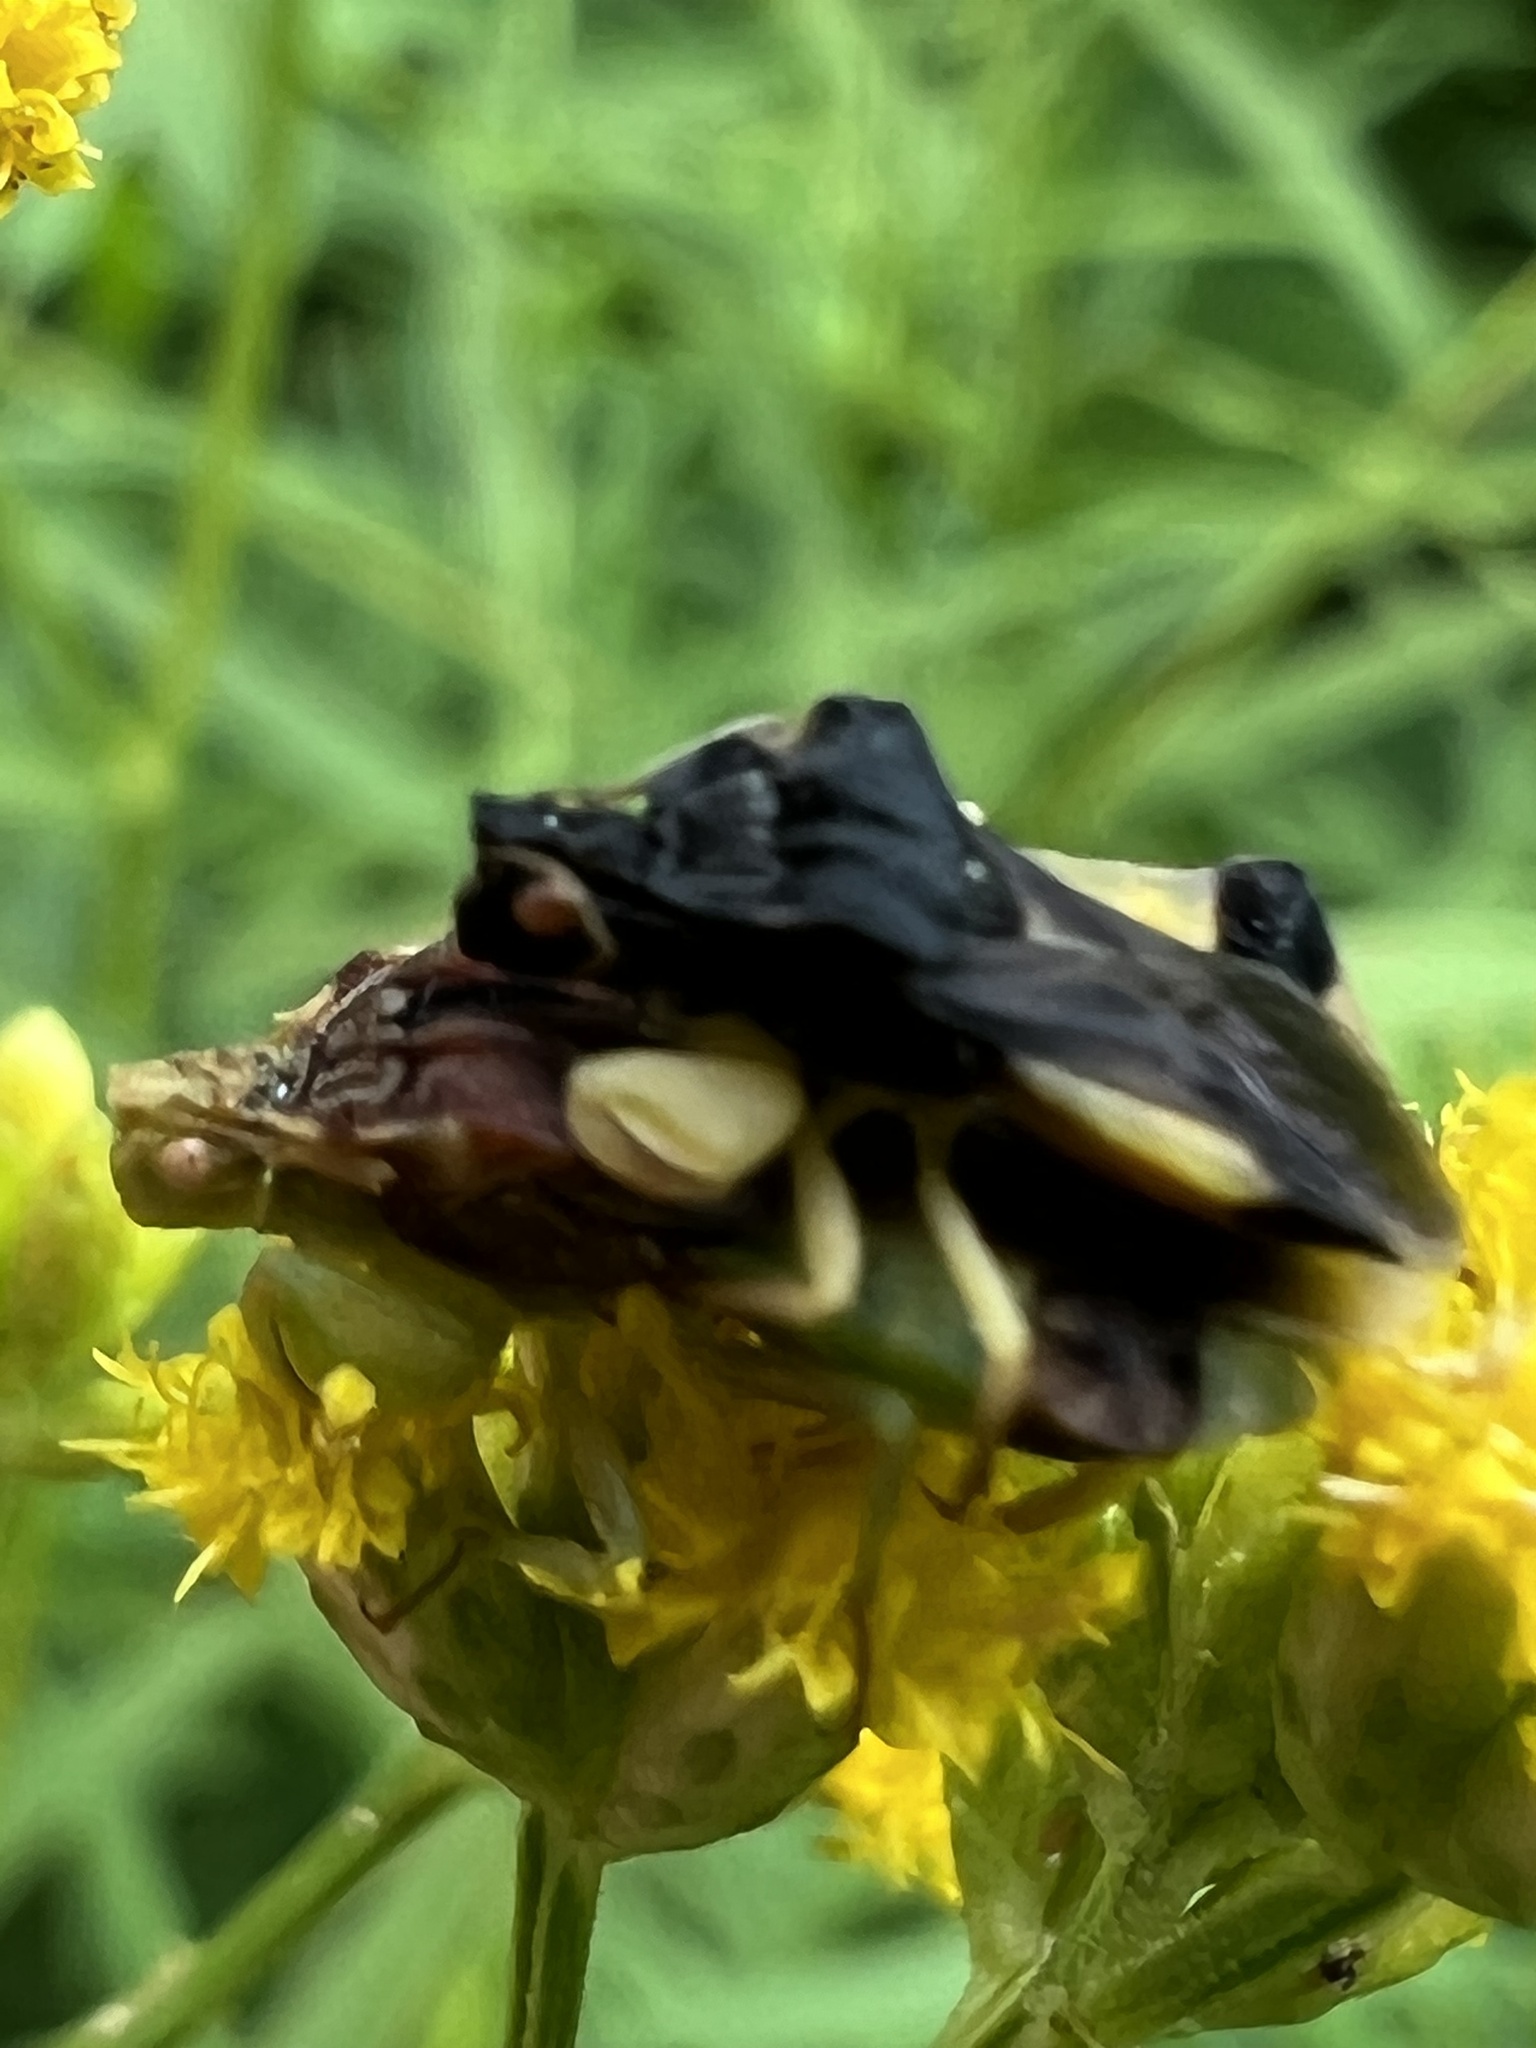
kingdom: Animalia
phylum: Arthropoda
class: Insecta
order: Hemiptera
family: Reduviidae
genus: Phymata
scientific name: Phymata pennsylvanica
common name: Pennsylvania ambush bug
